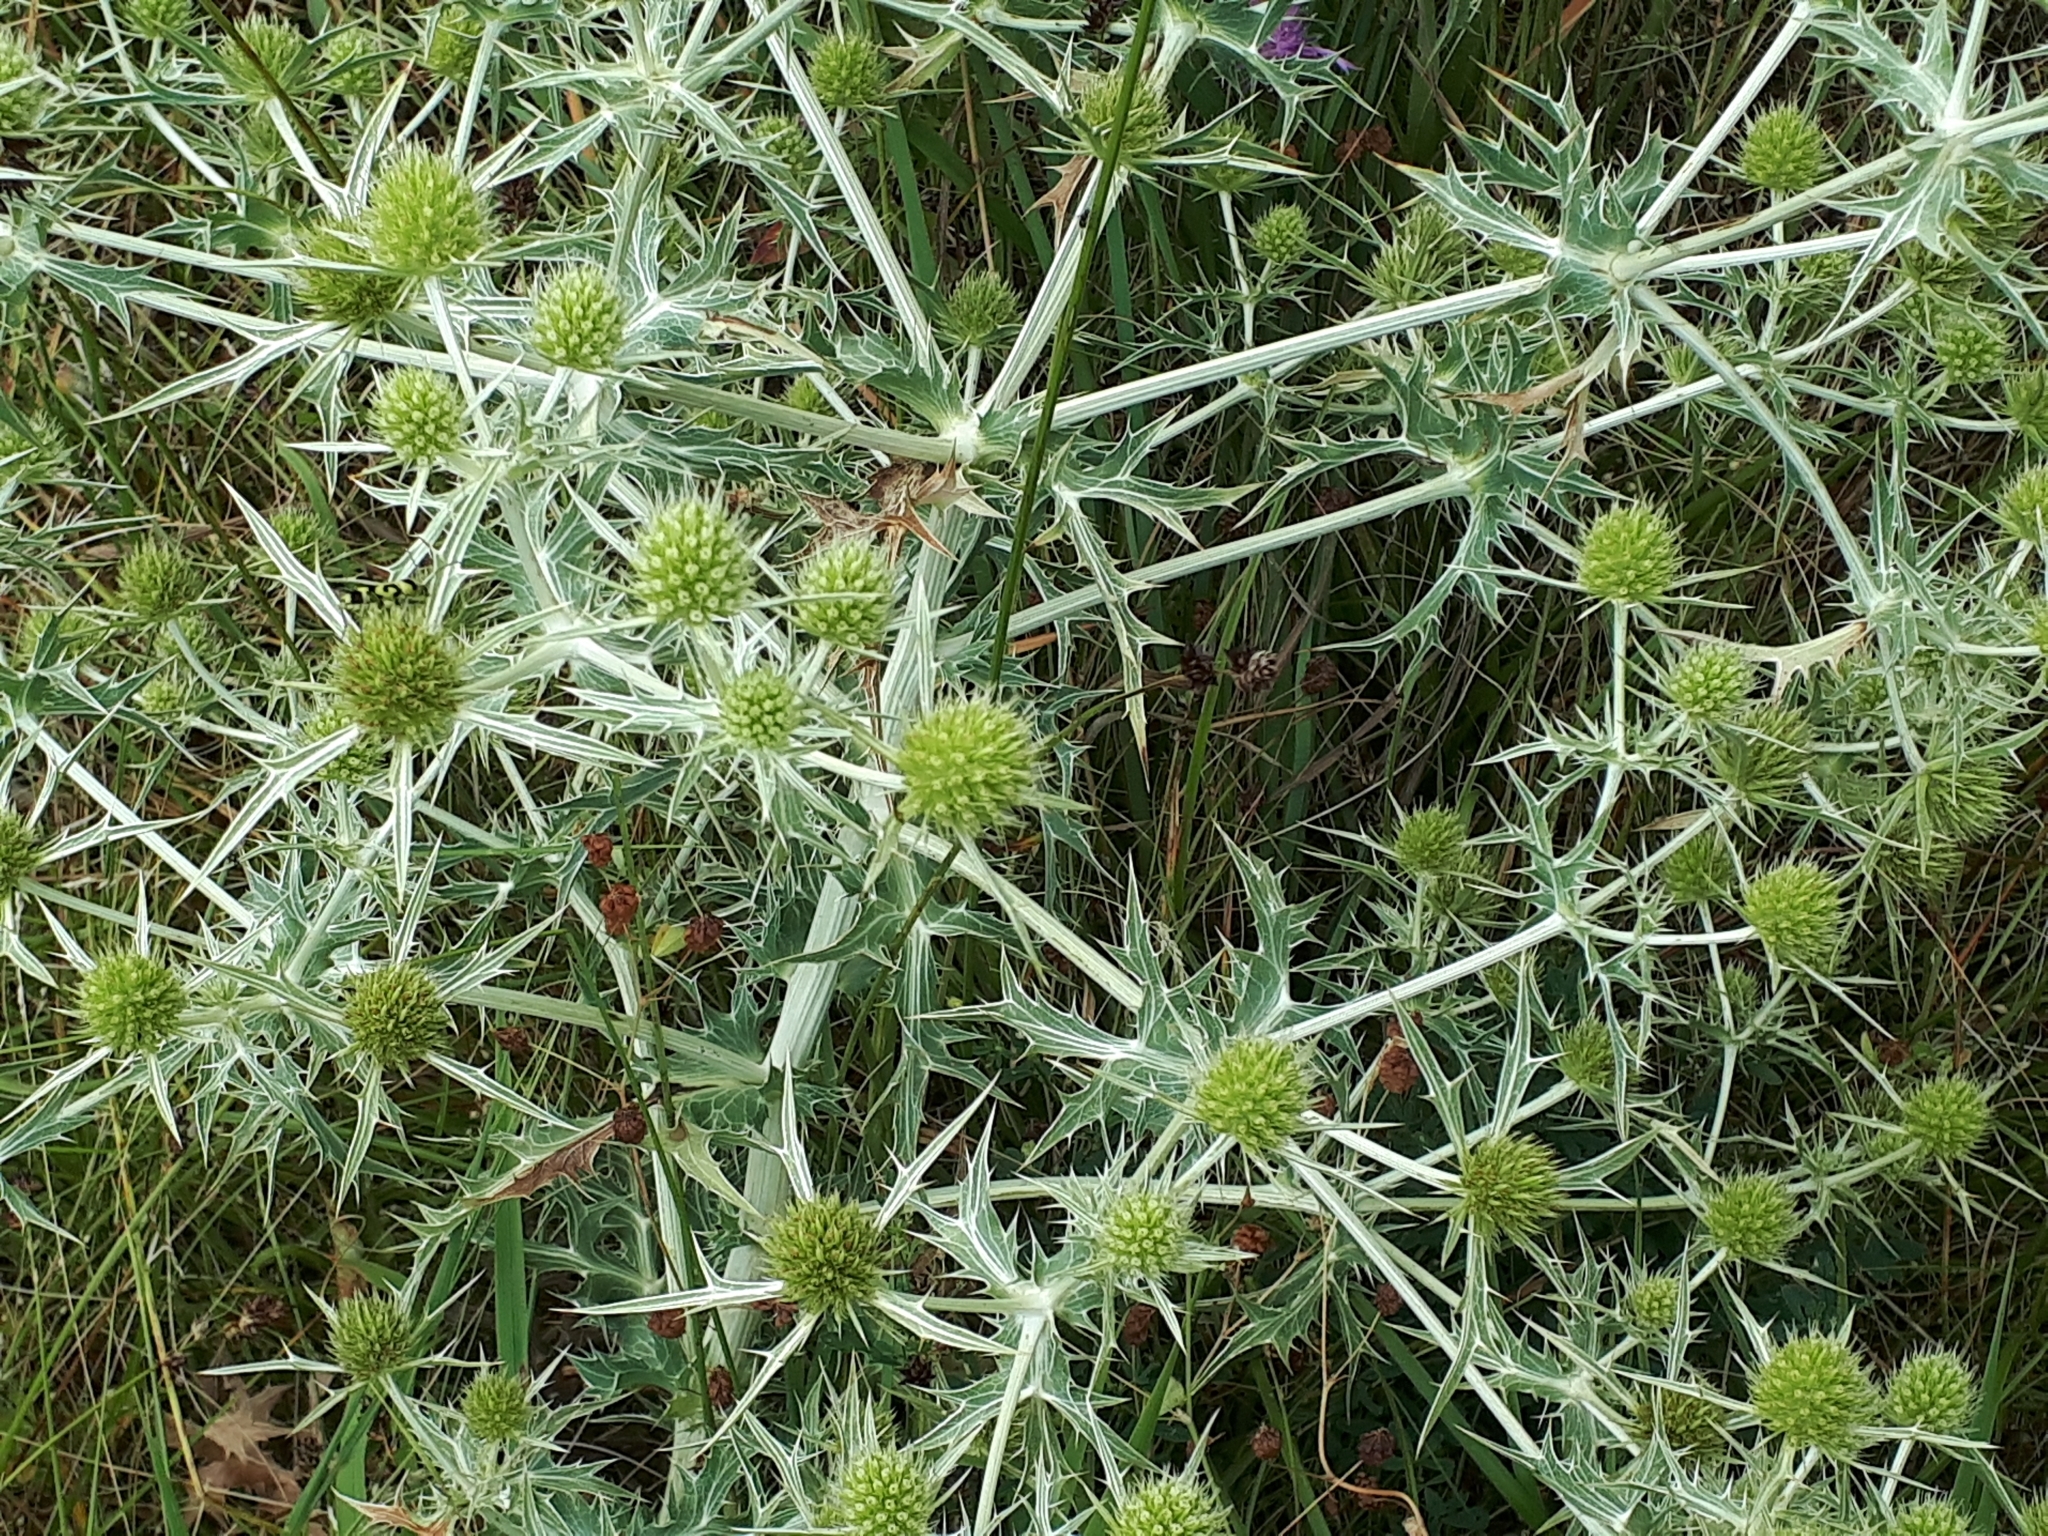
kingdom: Plantae
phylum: Tracheophyta
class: Magnoliopsida
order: Apiales
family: Apiaceae
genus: Eryngium
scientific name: Eryngium campestre
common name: Field eryngo
